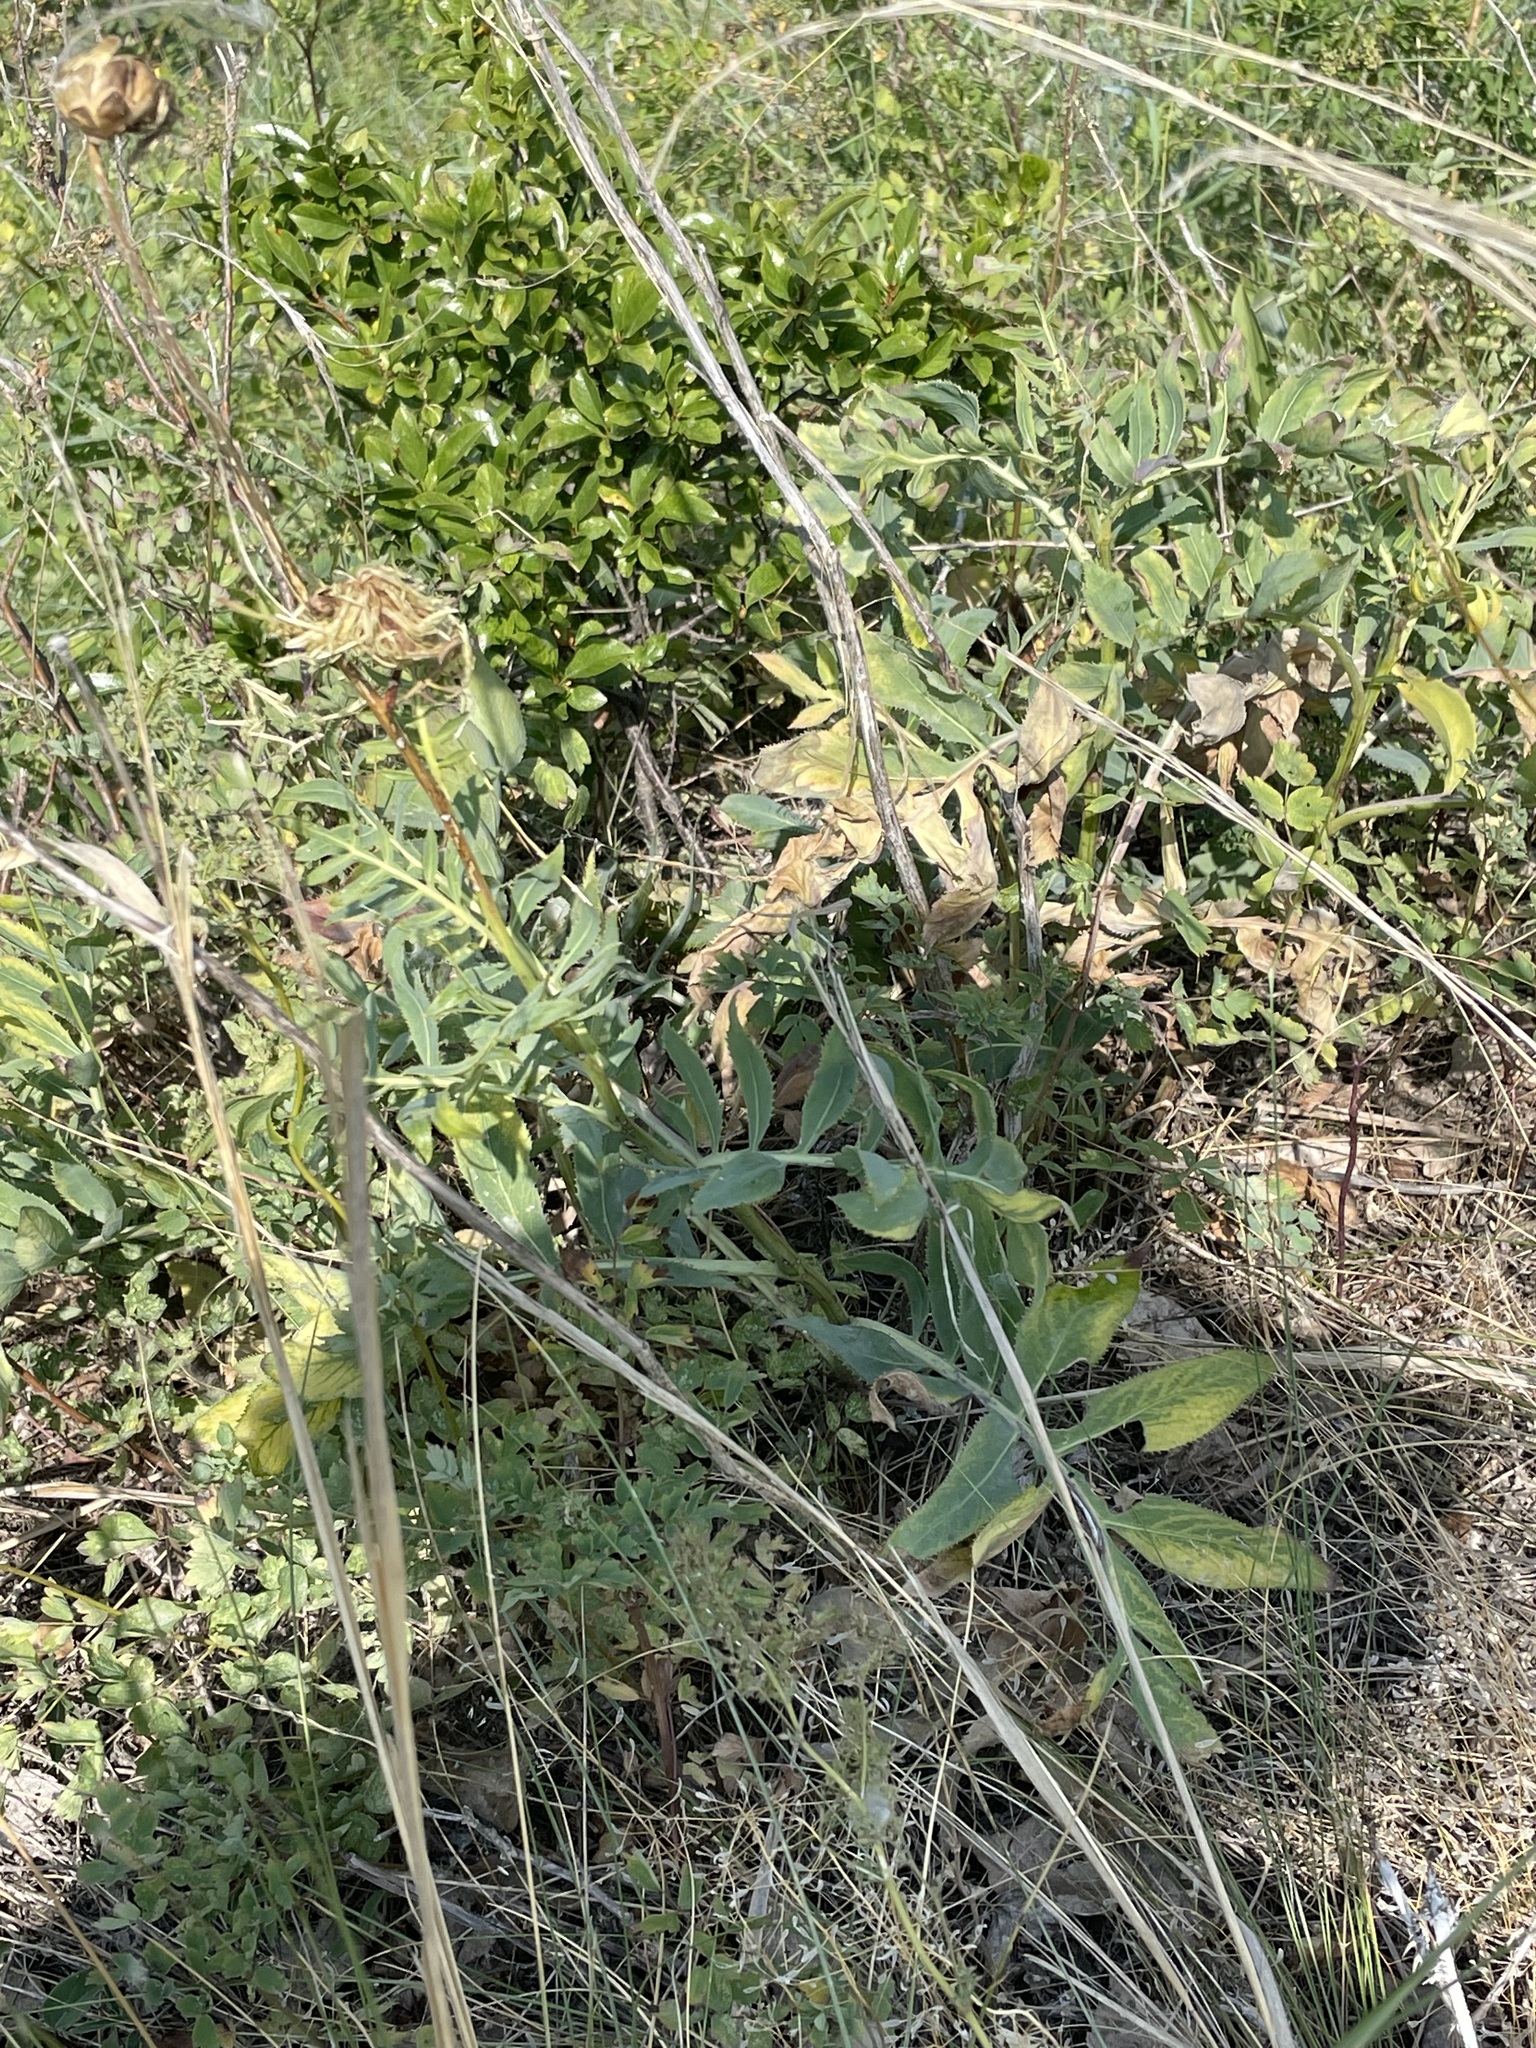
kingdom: Plantae
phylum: Tracheophyta
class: Magnoliopsida
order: Asterales
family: Asteraceae
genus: Rhaponticoides
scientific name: Rhaponticoides ruthenica
